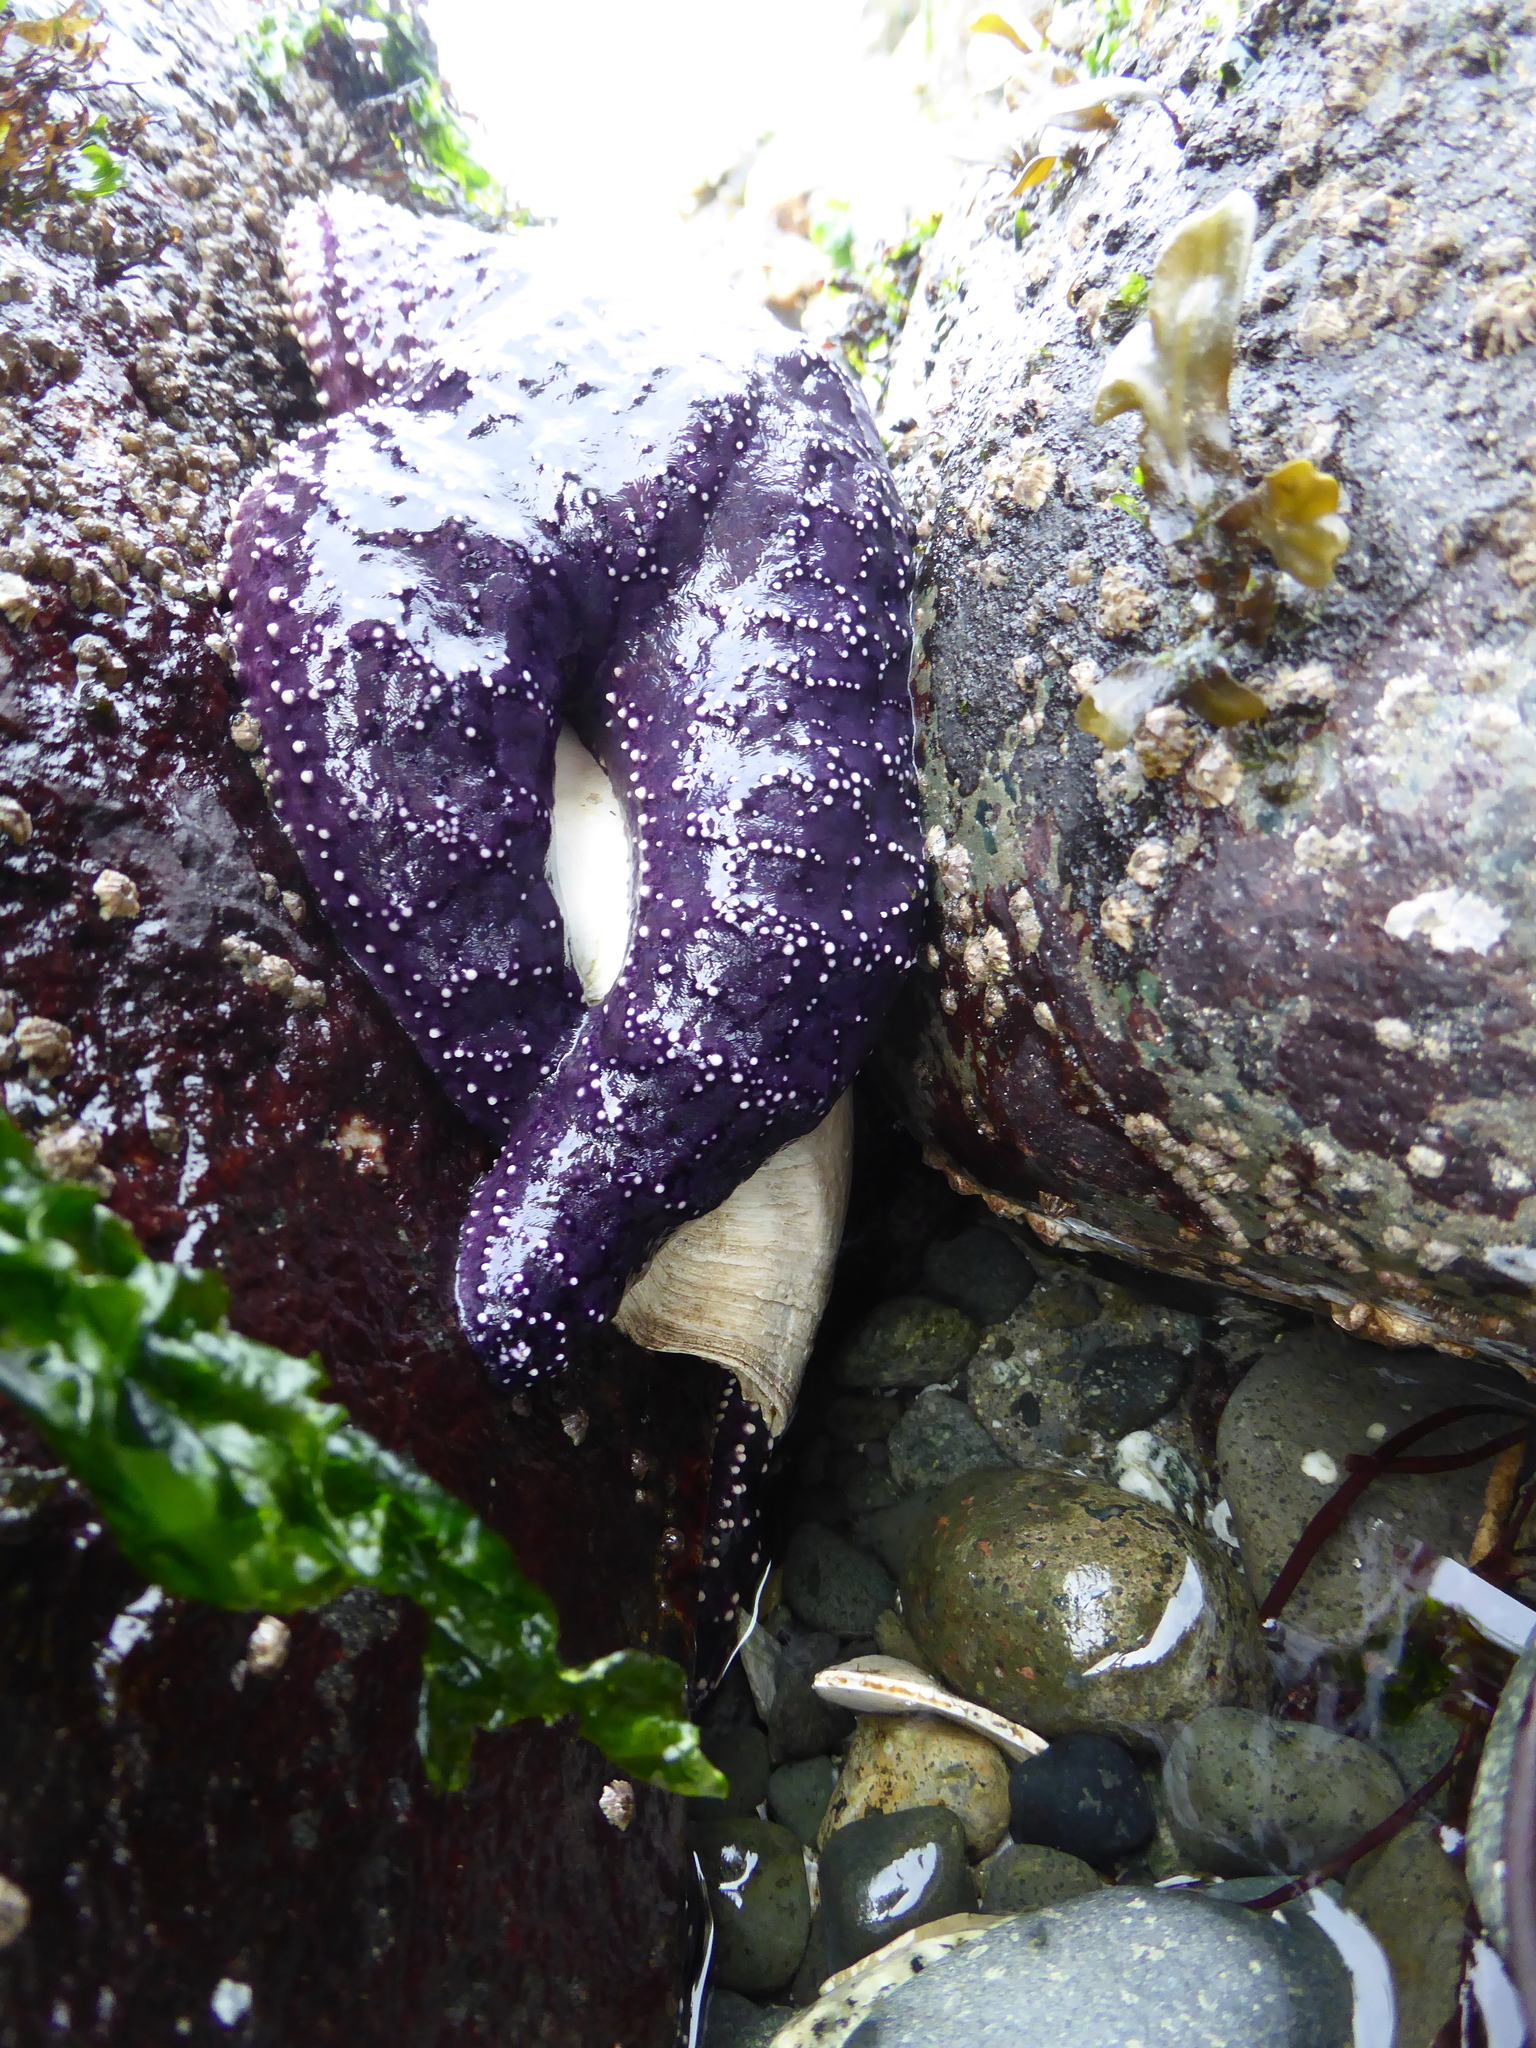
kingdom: Animalia
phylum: Echinodermata
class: Asteroidea
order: Forcipulatida
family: Asteriidae
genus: Pisaster
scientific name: Pisaster ochraceus
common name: Ochre stars
